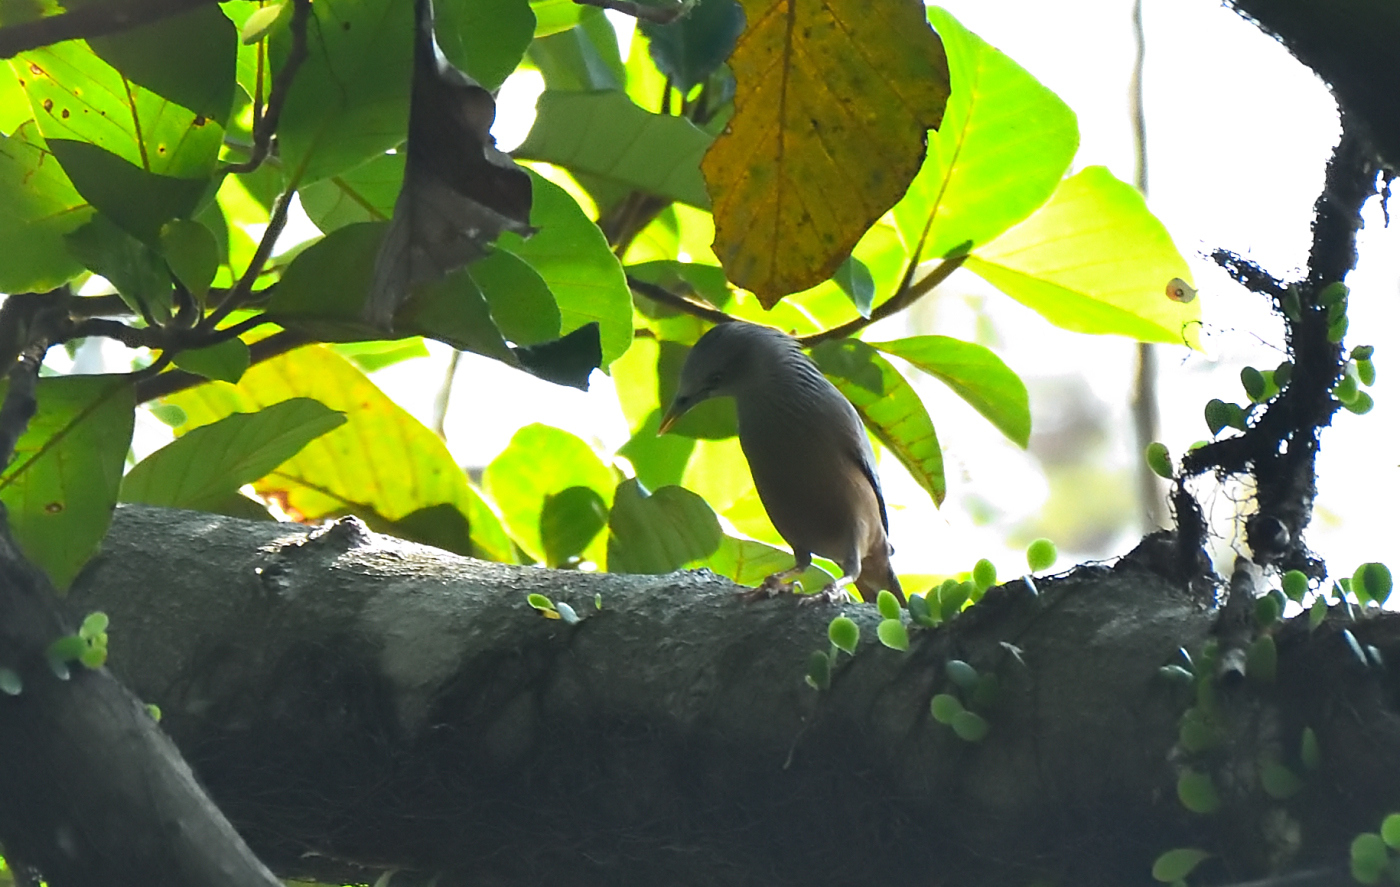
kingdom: Animalia
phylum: Chordata
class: Aves
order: Passeriformes
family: Sturnidae
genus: Sturnia
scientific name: Sturnia malabarica
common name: Chestnut-tailed starling
